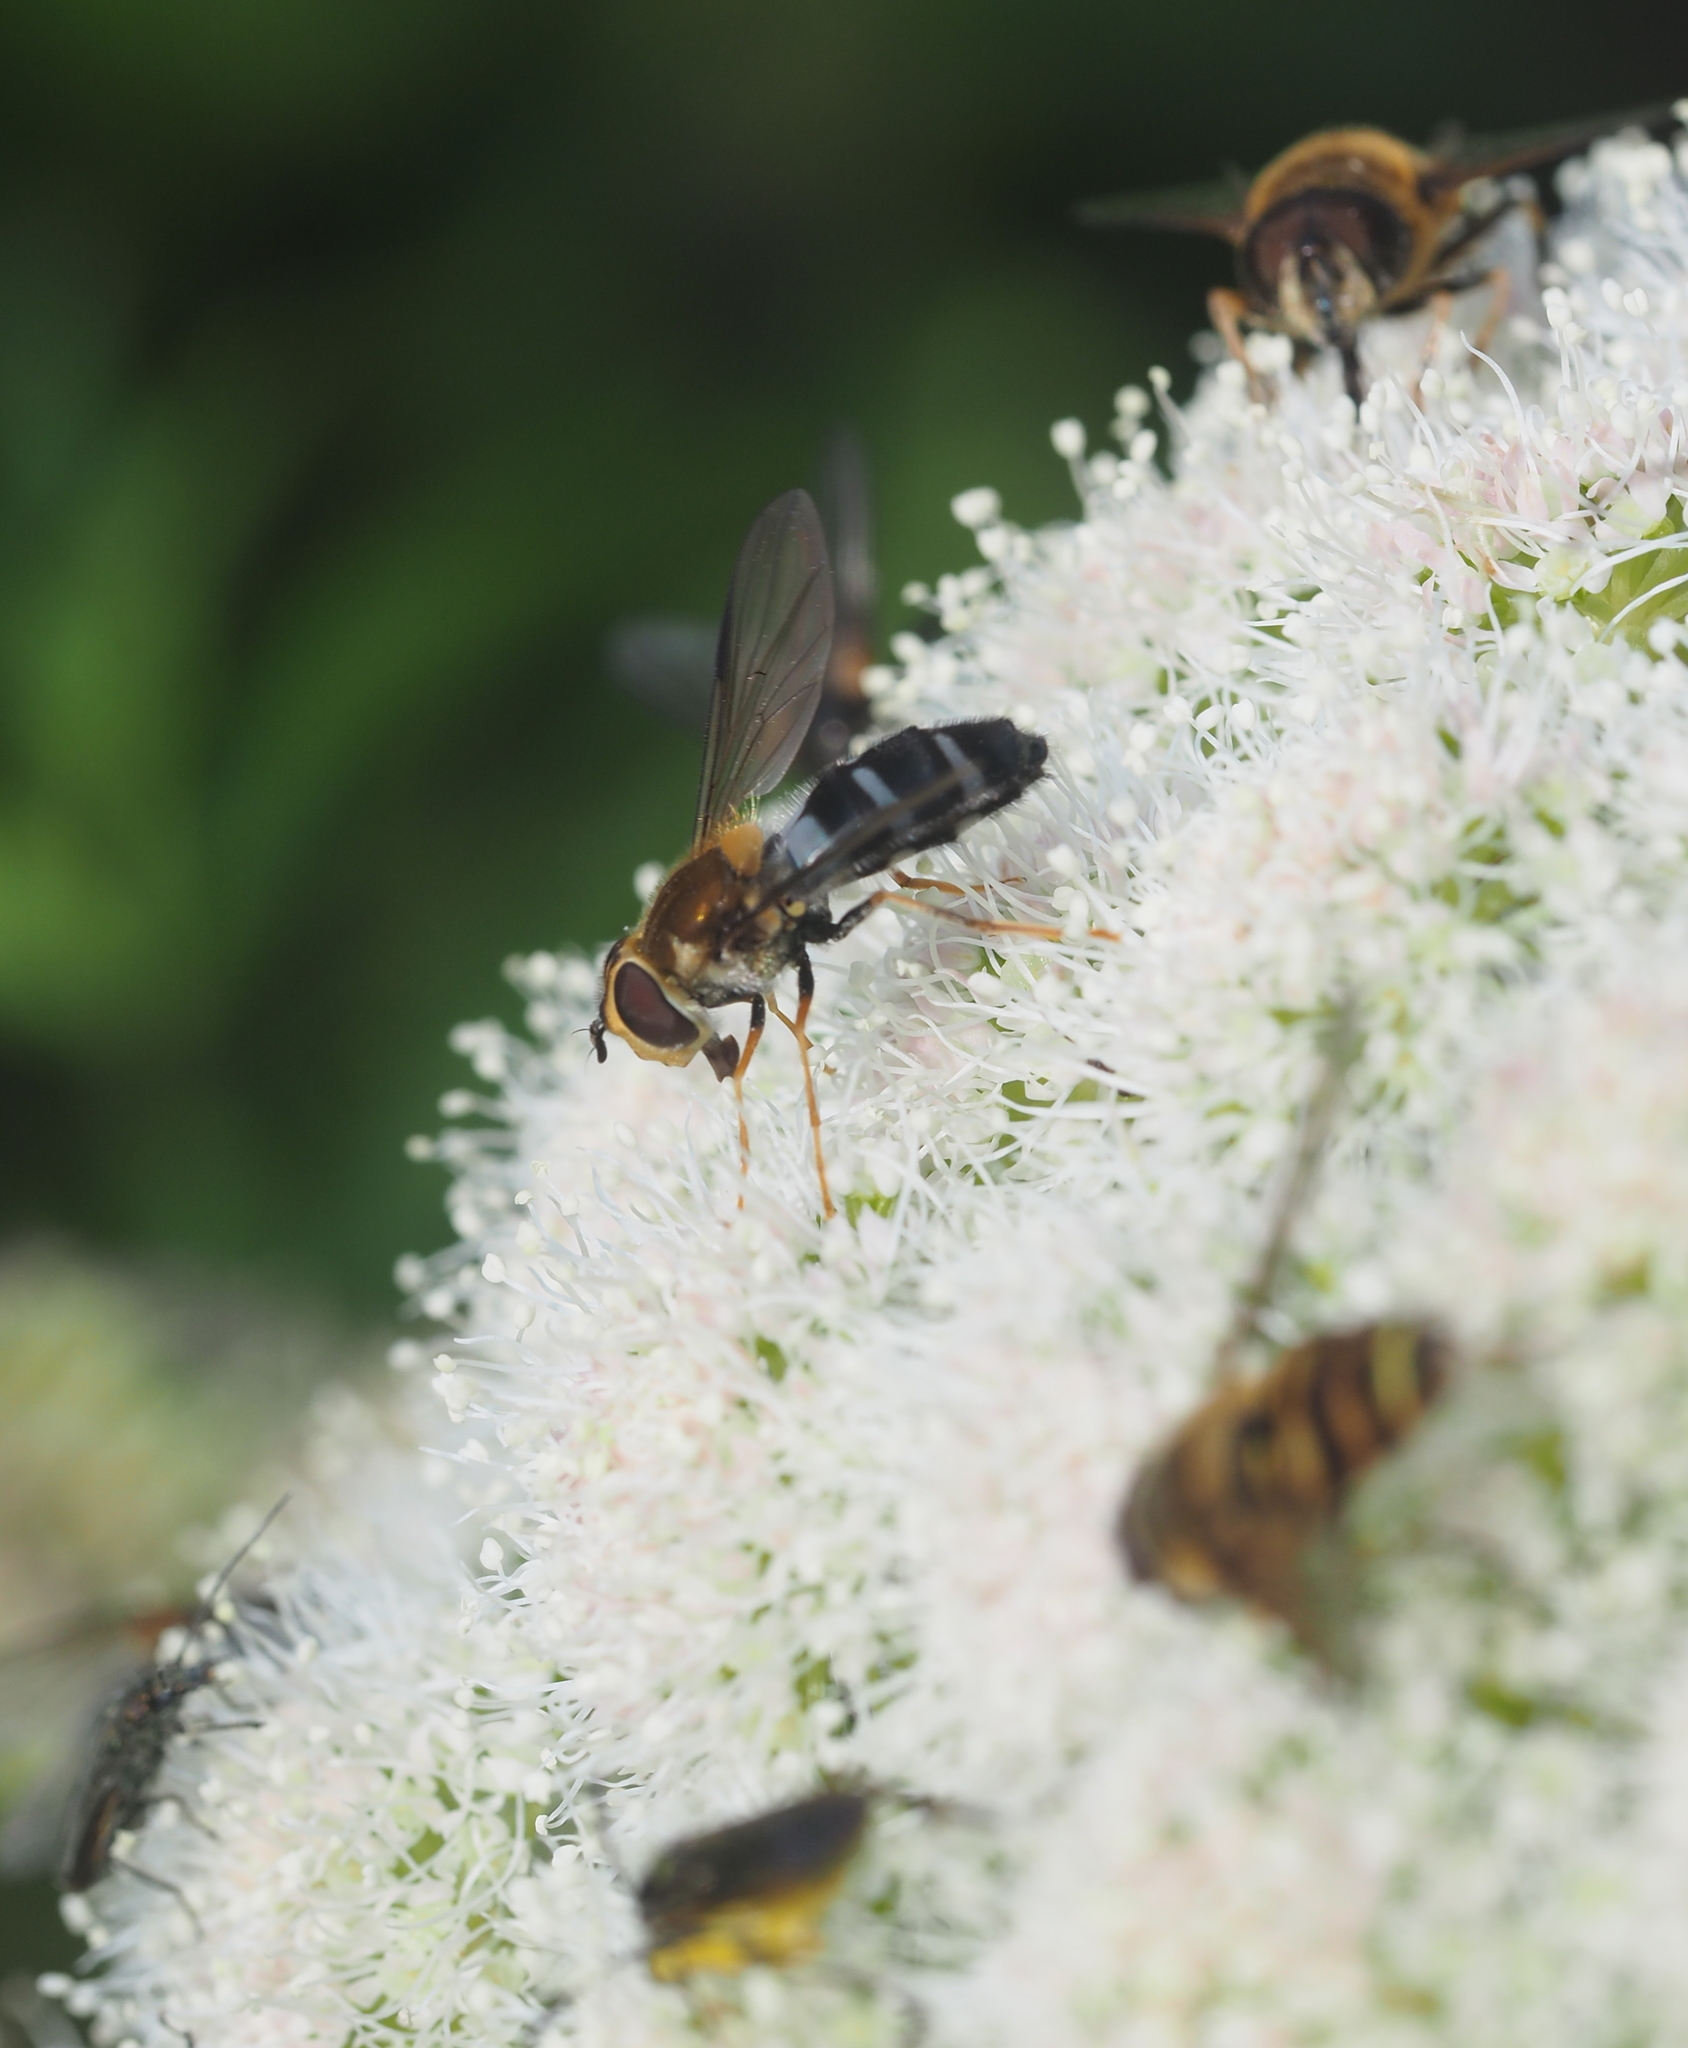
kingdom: Animalia
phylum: Arthropoda
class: Insecta
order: Diptera
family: Syrphidae
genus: Leucozona
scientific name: Leucozona glaucia
